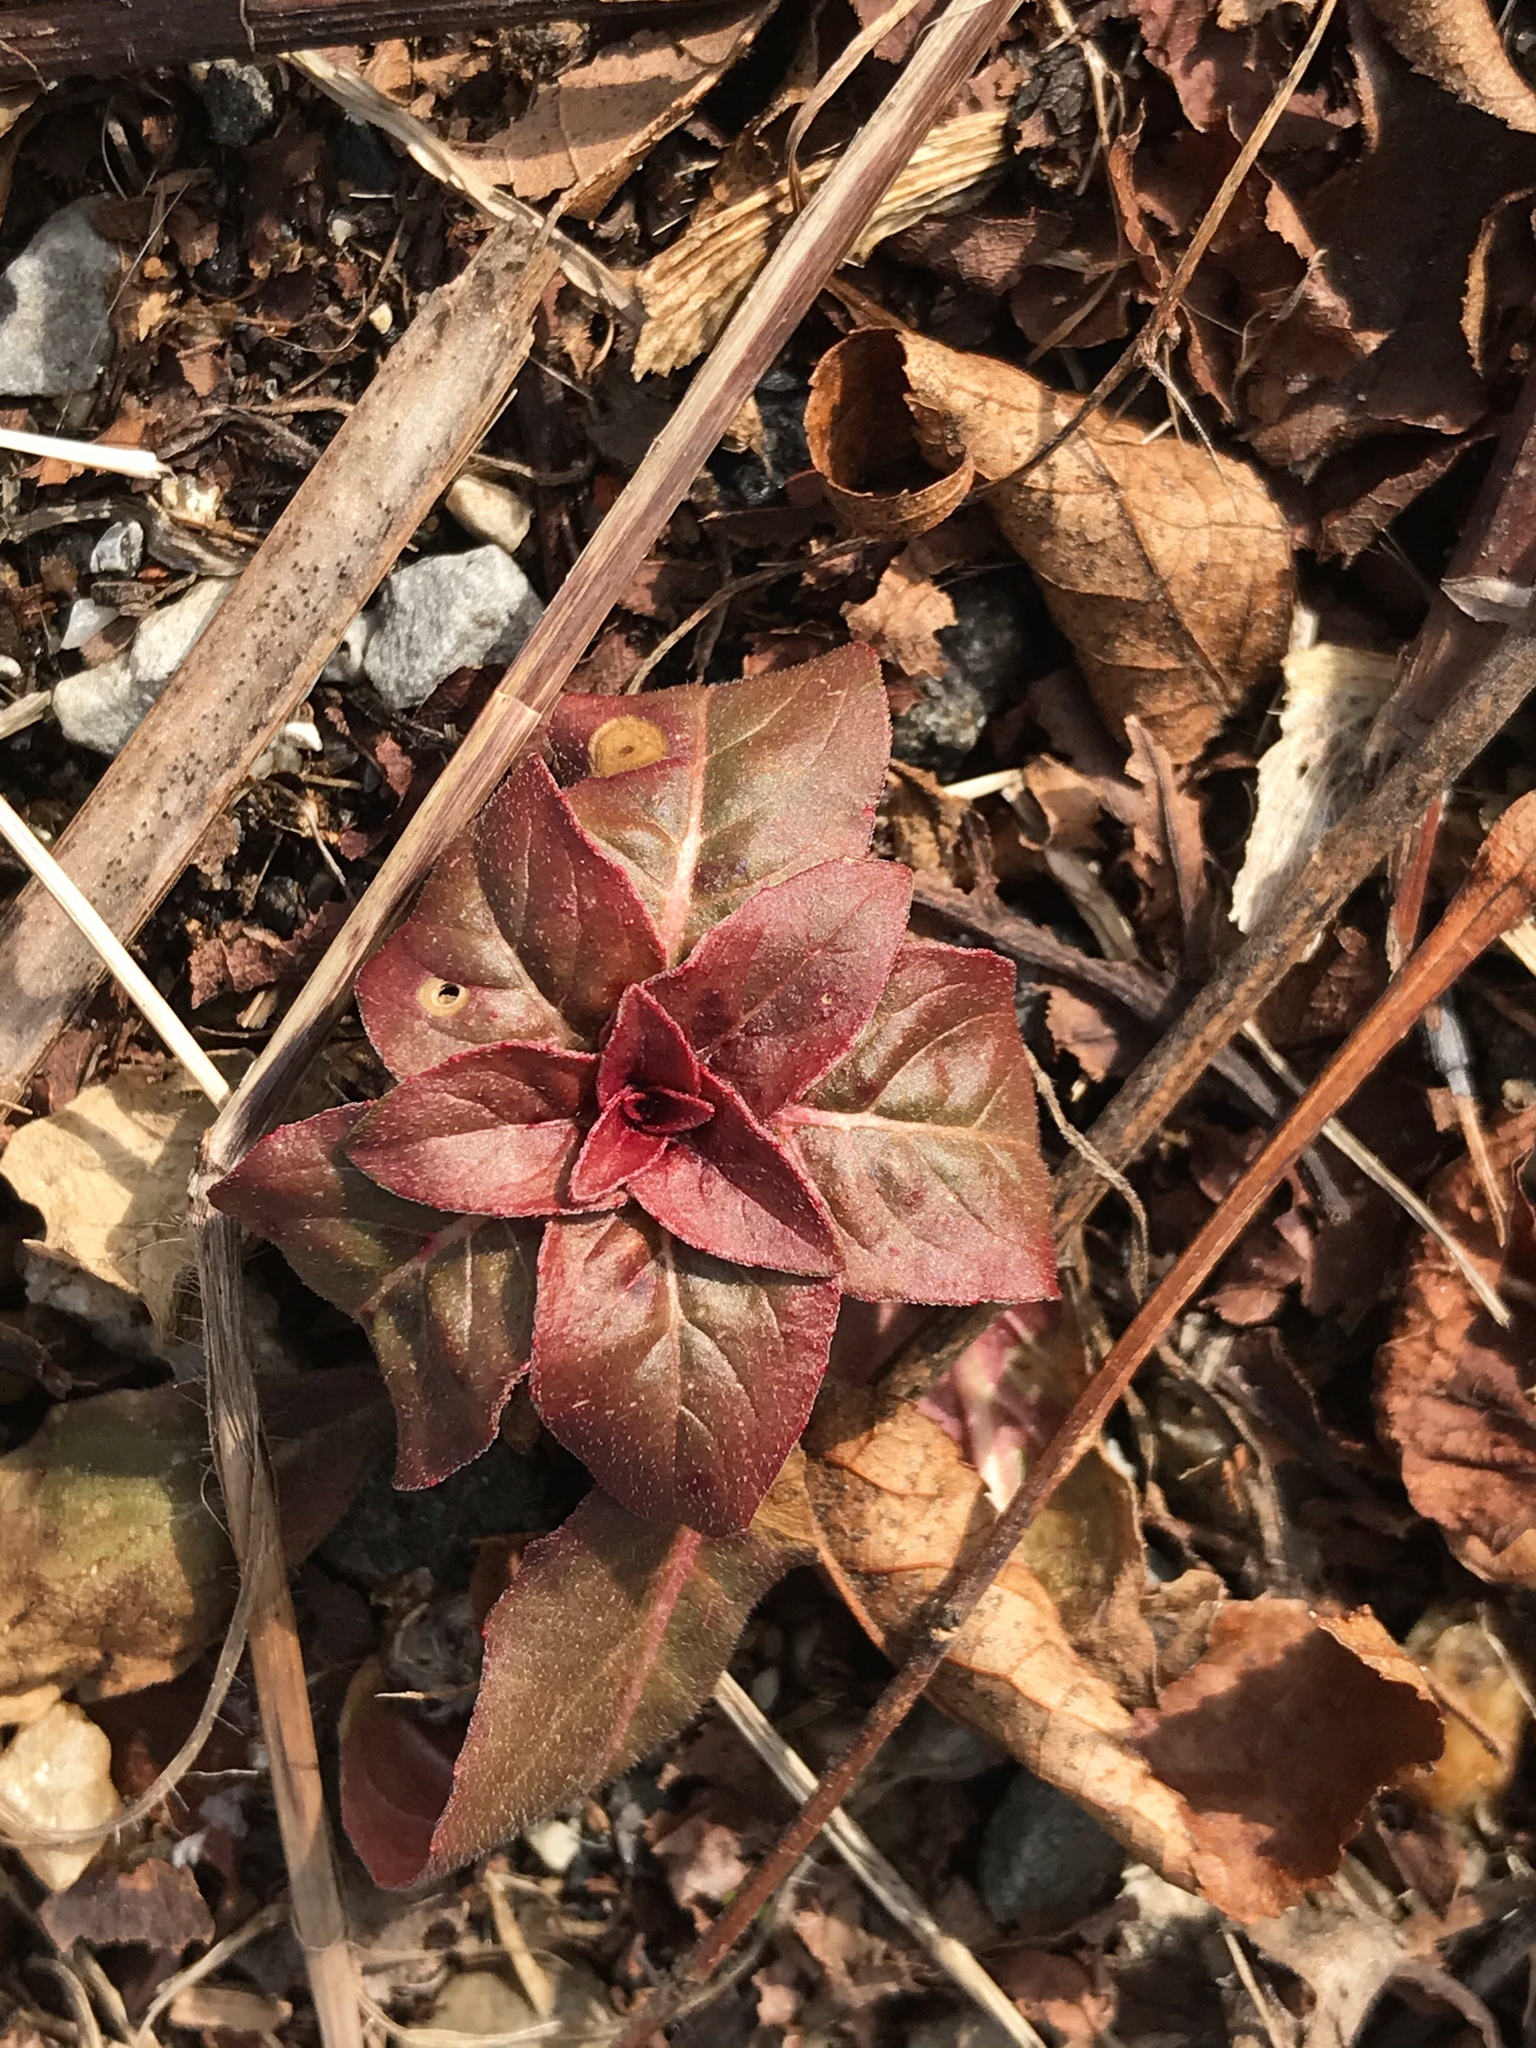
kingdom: Plantae
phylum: Tracheophyta
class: Magnoliopsida
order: Myrtales
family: Onagraceae
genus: Oenothera
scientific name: Oenothera biennis
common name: Common evening-primrose
